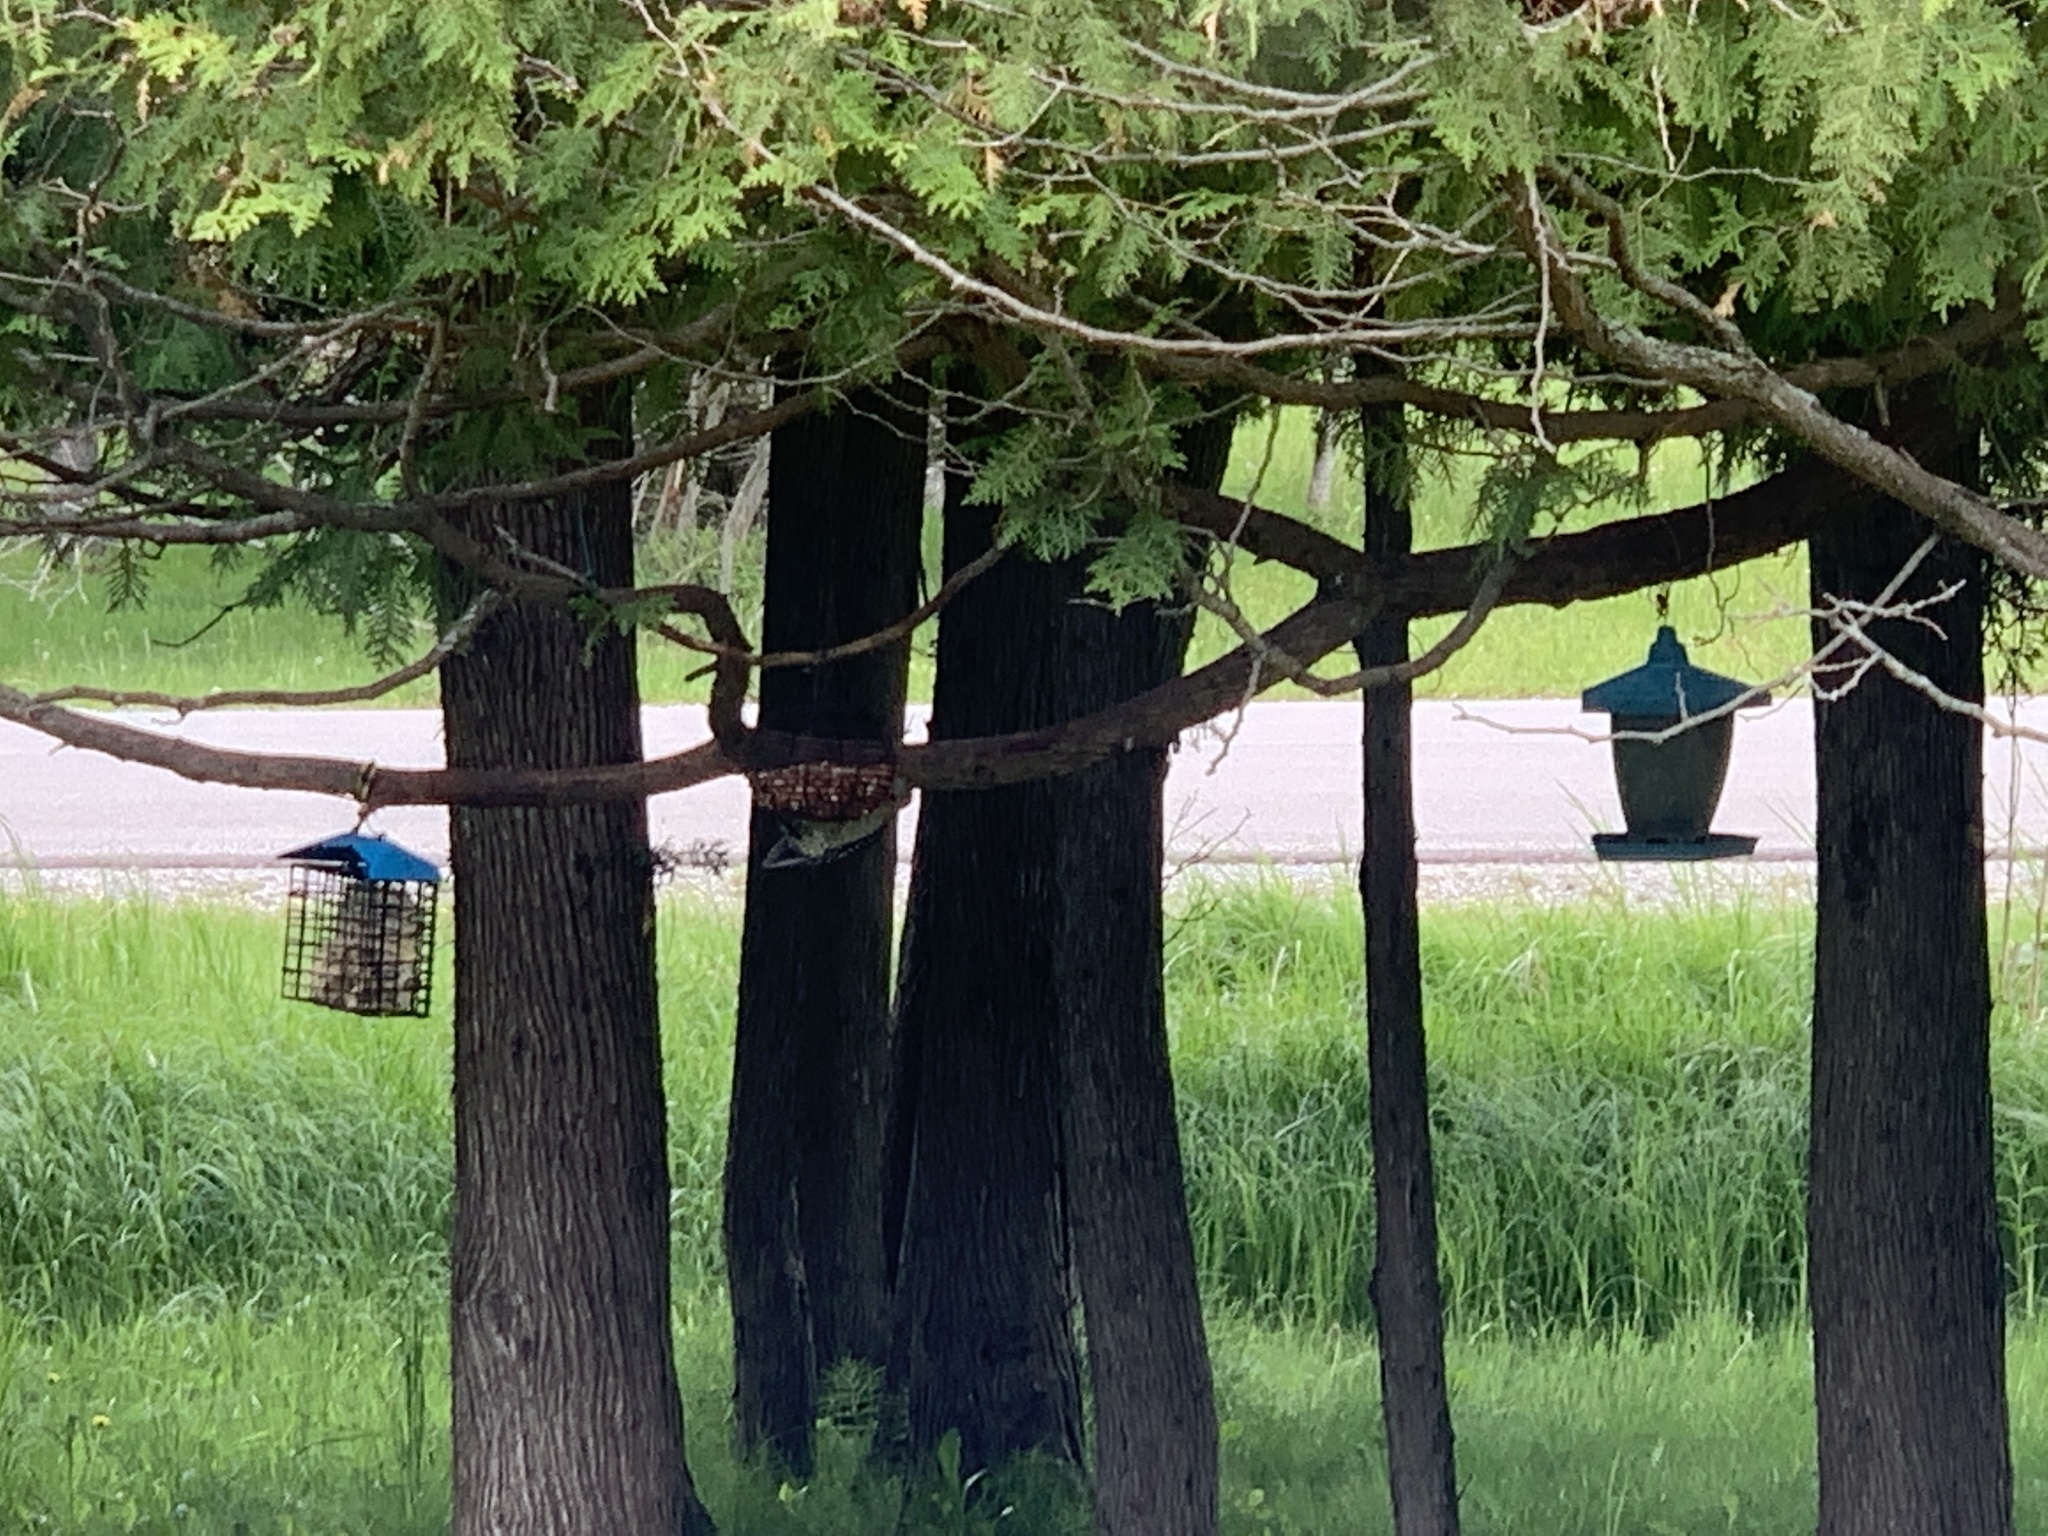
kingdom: Animalia
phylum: Chordata
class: Aves
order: Piciformes
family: Picidae
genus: Melanerpes
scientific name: Melanerpes carolinus
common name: Red-bellied woodpecker
